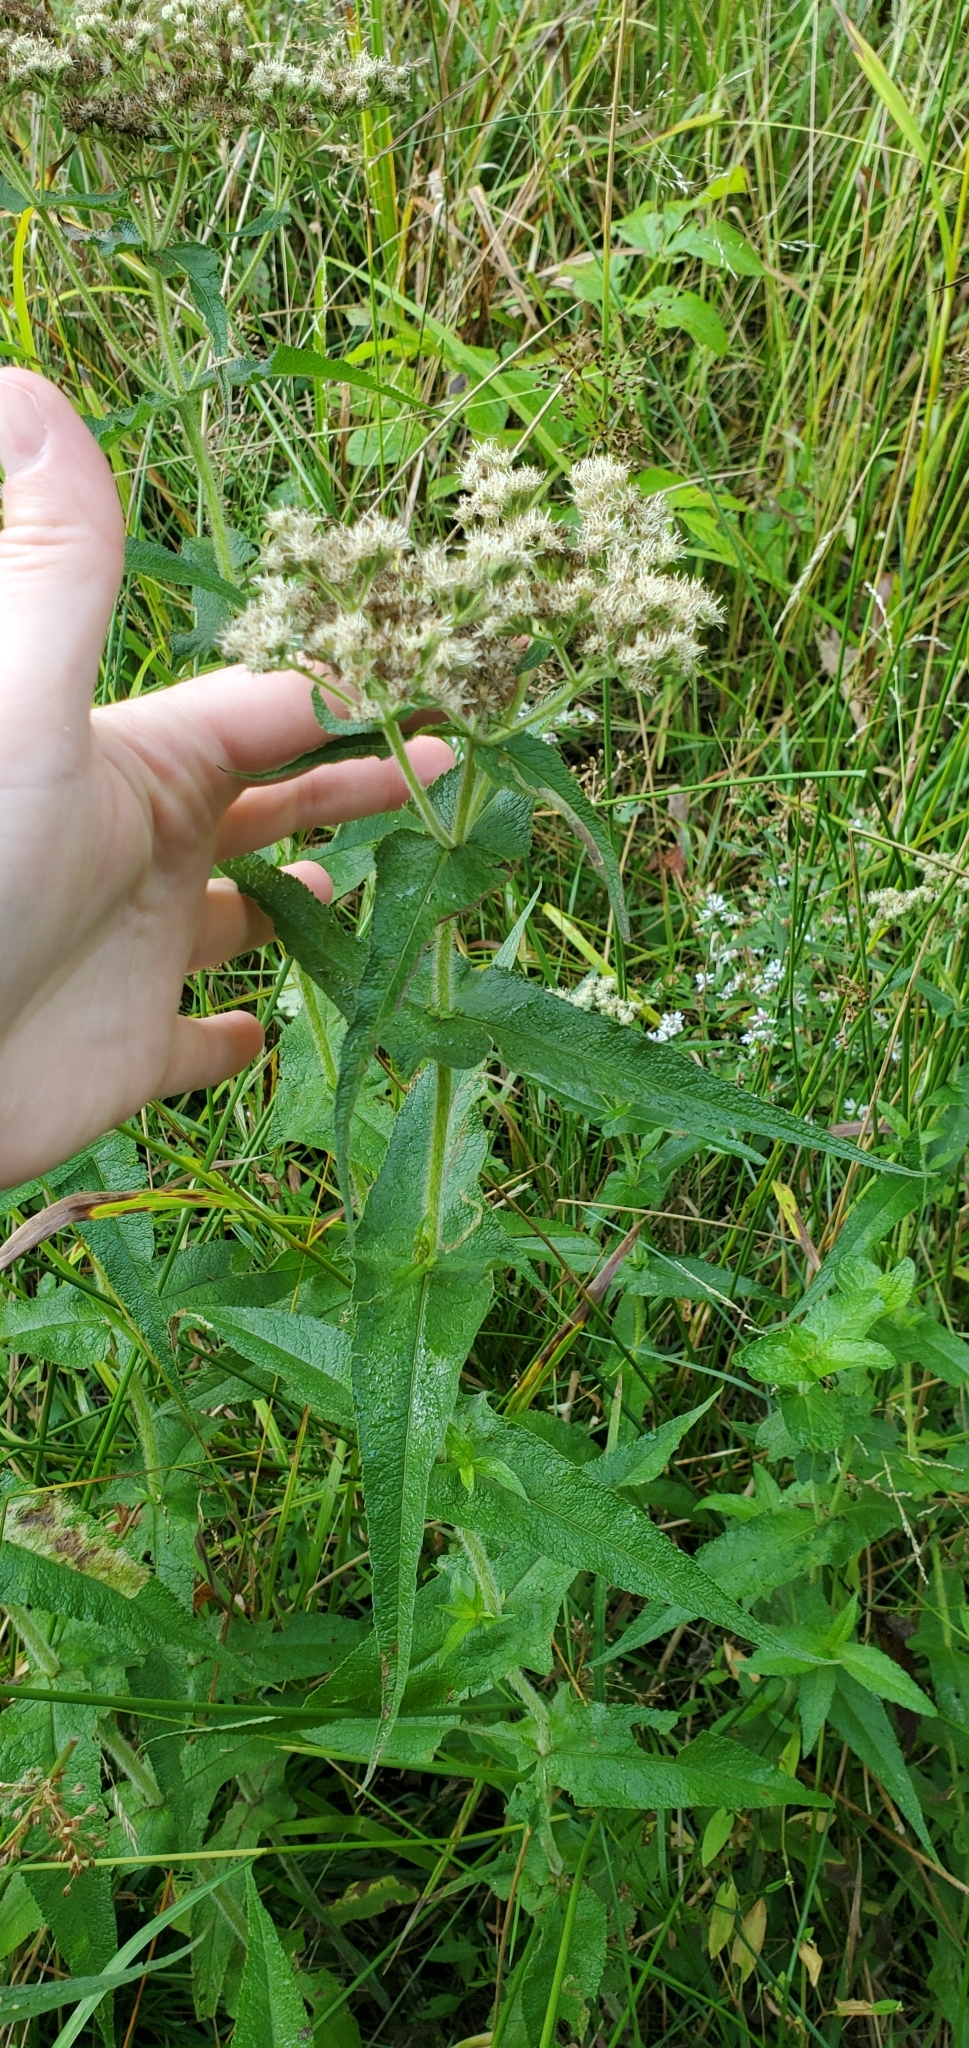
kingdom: Plantae
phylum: Tracheophyta
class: Magnoliopsida
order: Asterales
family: Asteraceae
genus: Eupatorium
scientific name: Eupatorium perfoliatum
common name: Boneset
